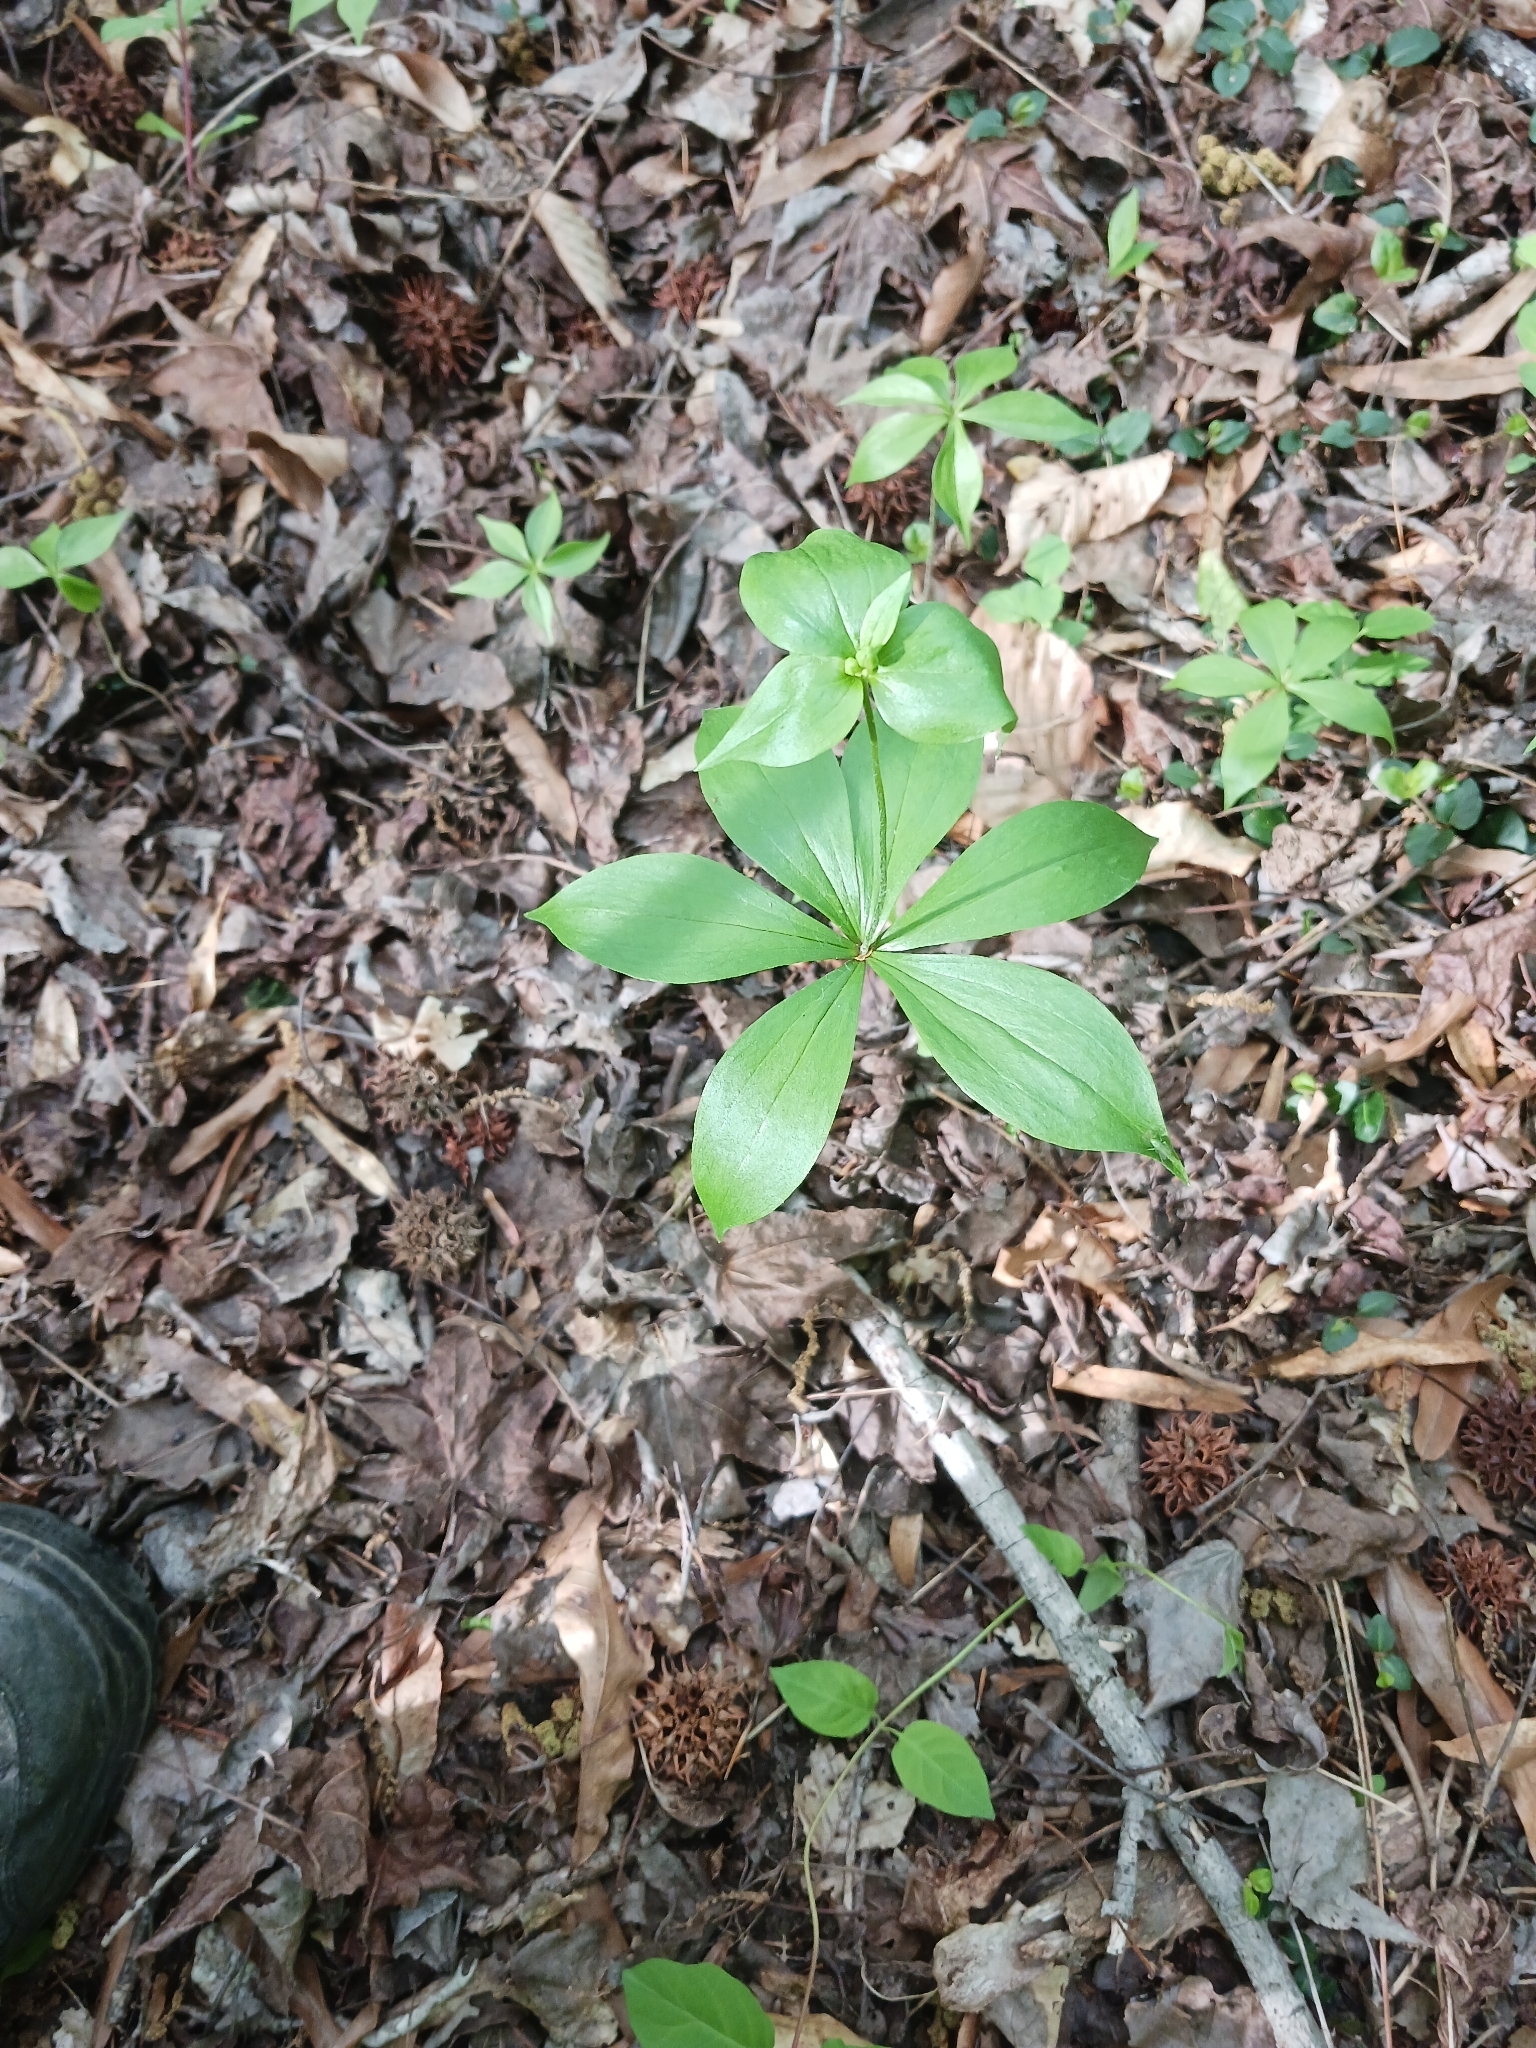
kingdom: Plantae
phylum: Tracheophyta
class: Liliopsida
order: Liliales
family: Liliaceae
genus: Medeola
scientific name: Medeola virginiana
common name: Indian cucumber-root
